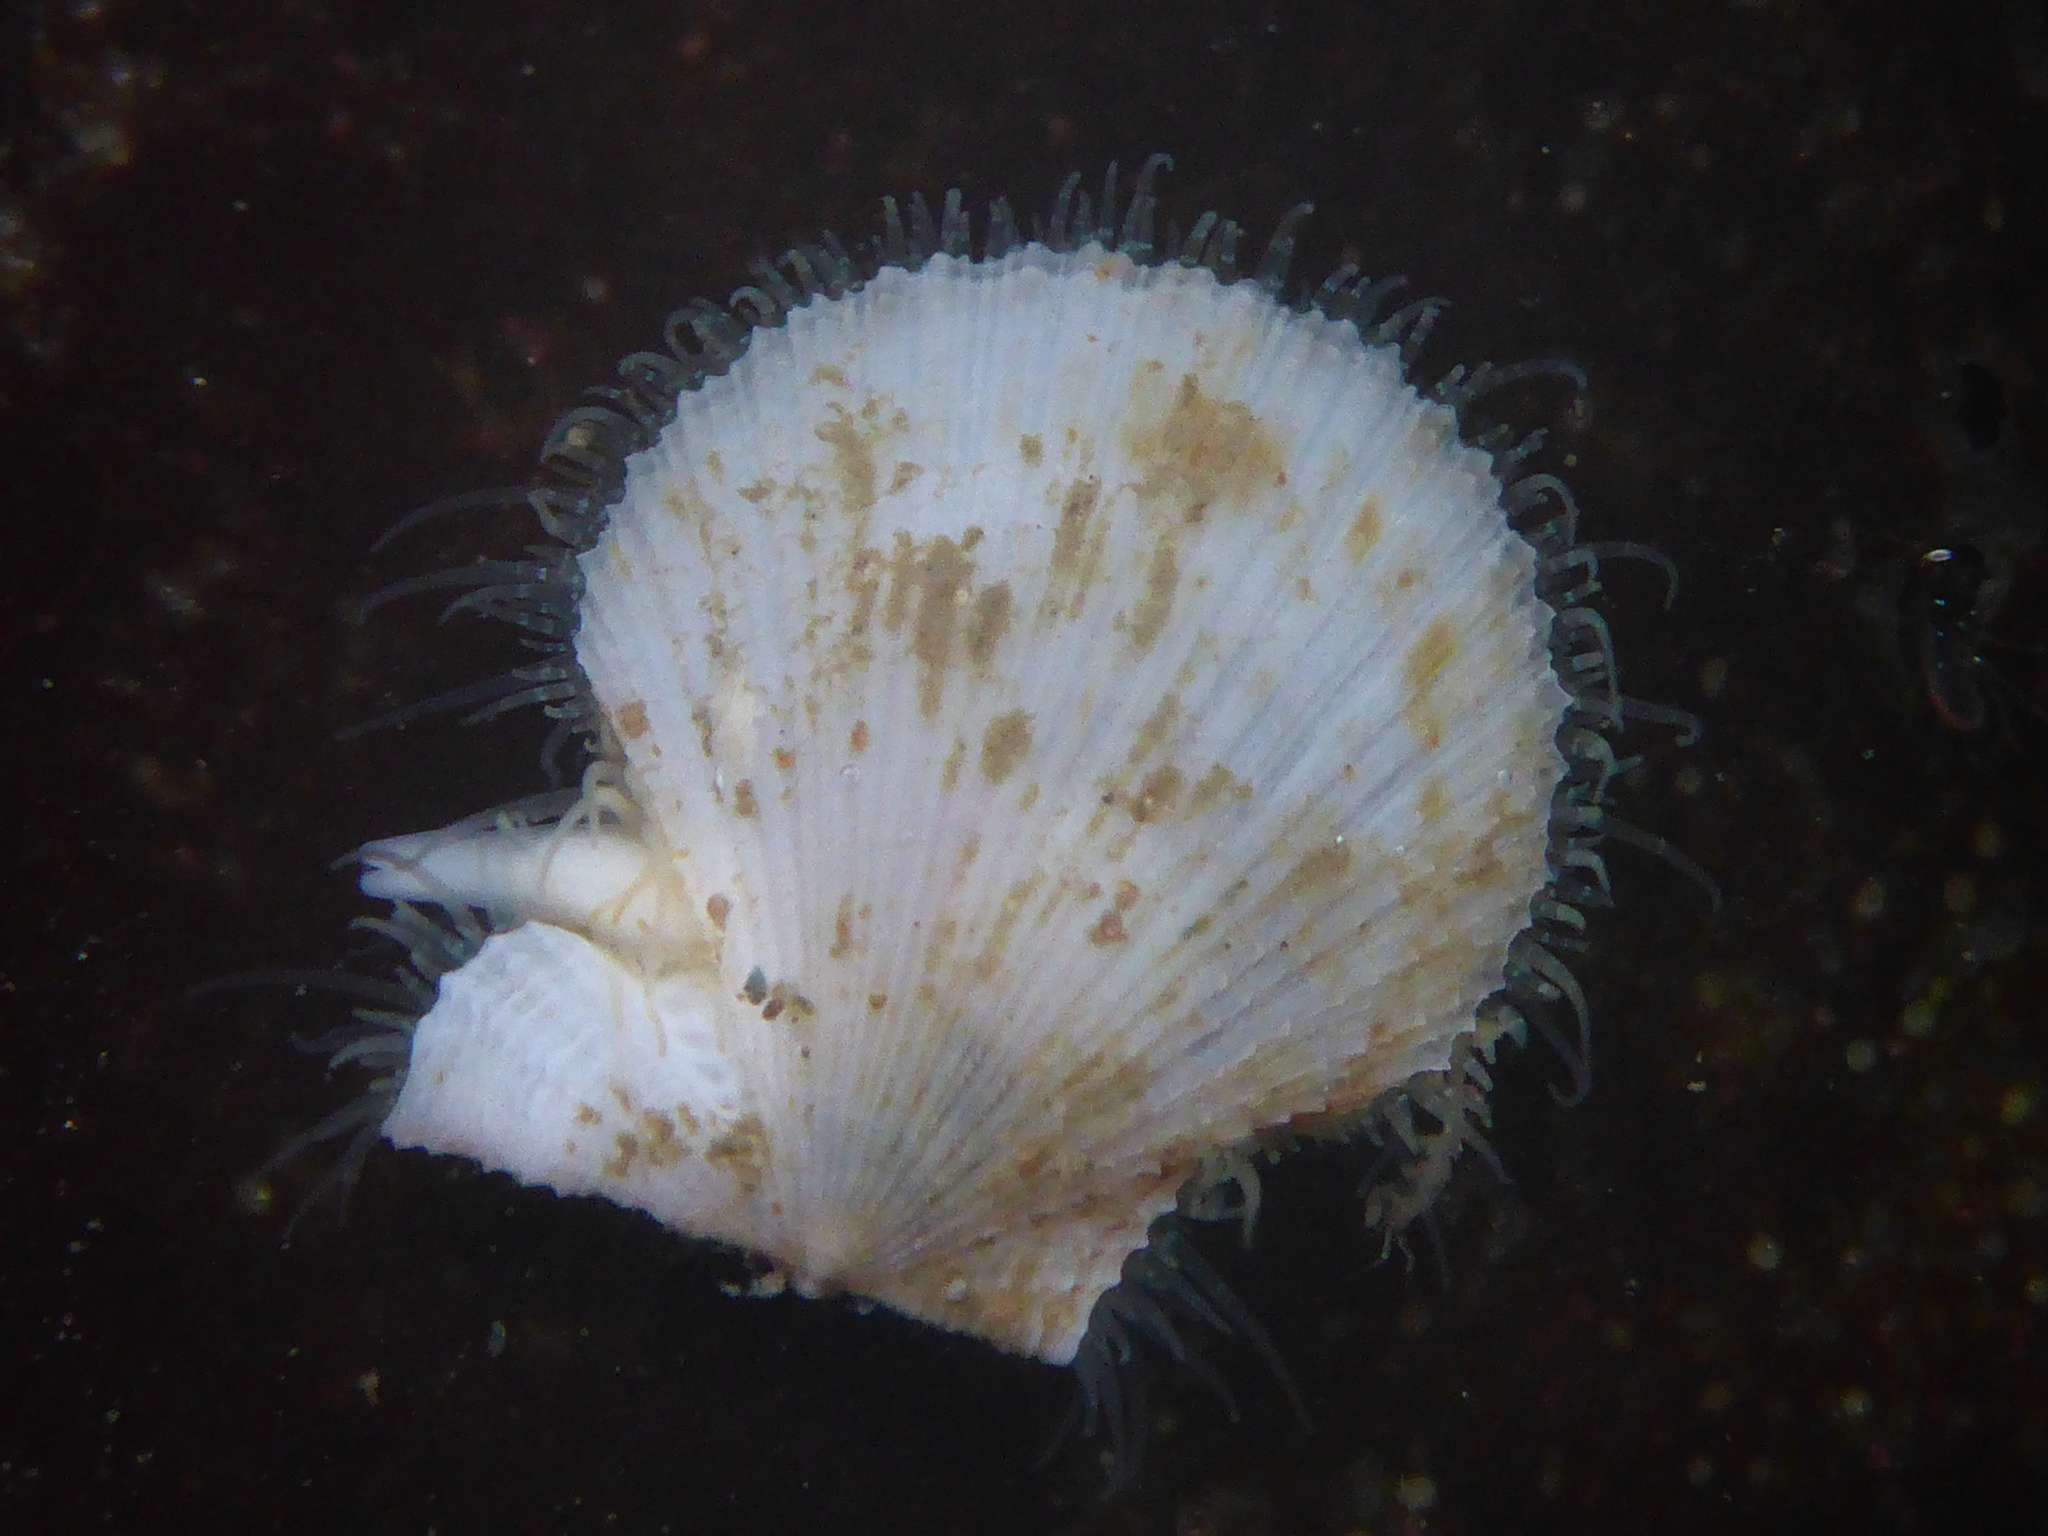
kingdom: Animalia
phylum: Mollusca
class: Bivalvia
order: Pectinida
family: Pectinidae
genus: Crassadoma
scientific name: Crassadoma gigantea
